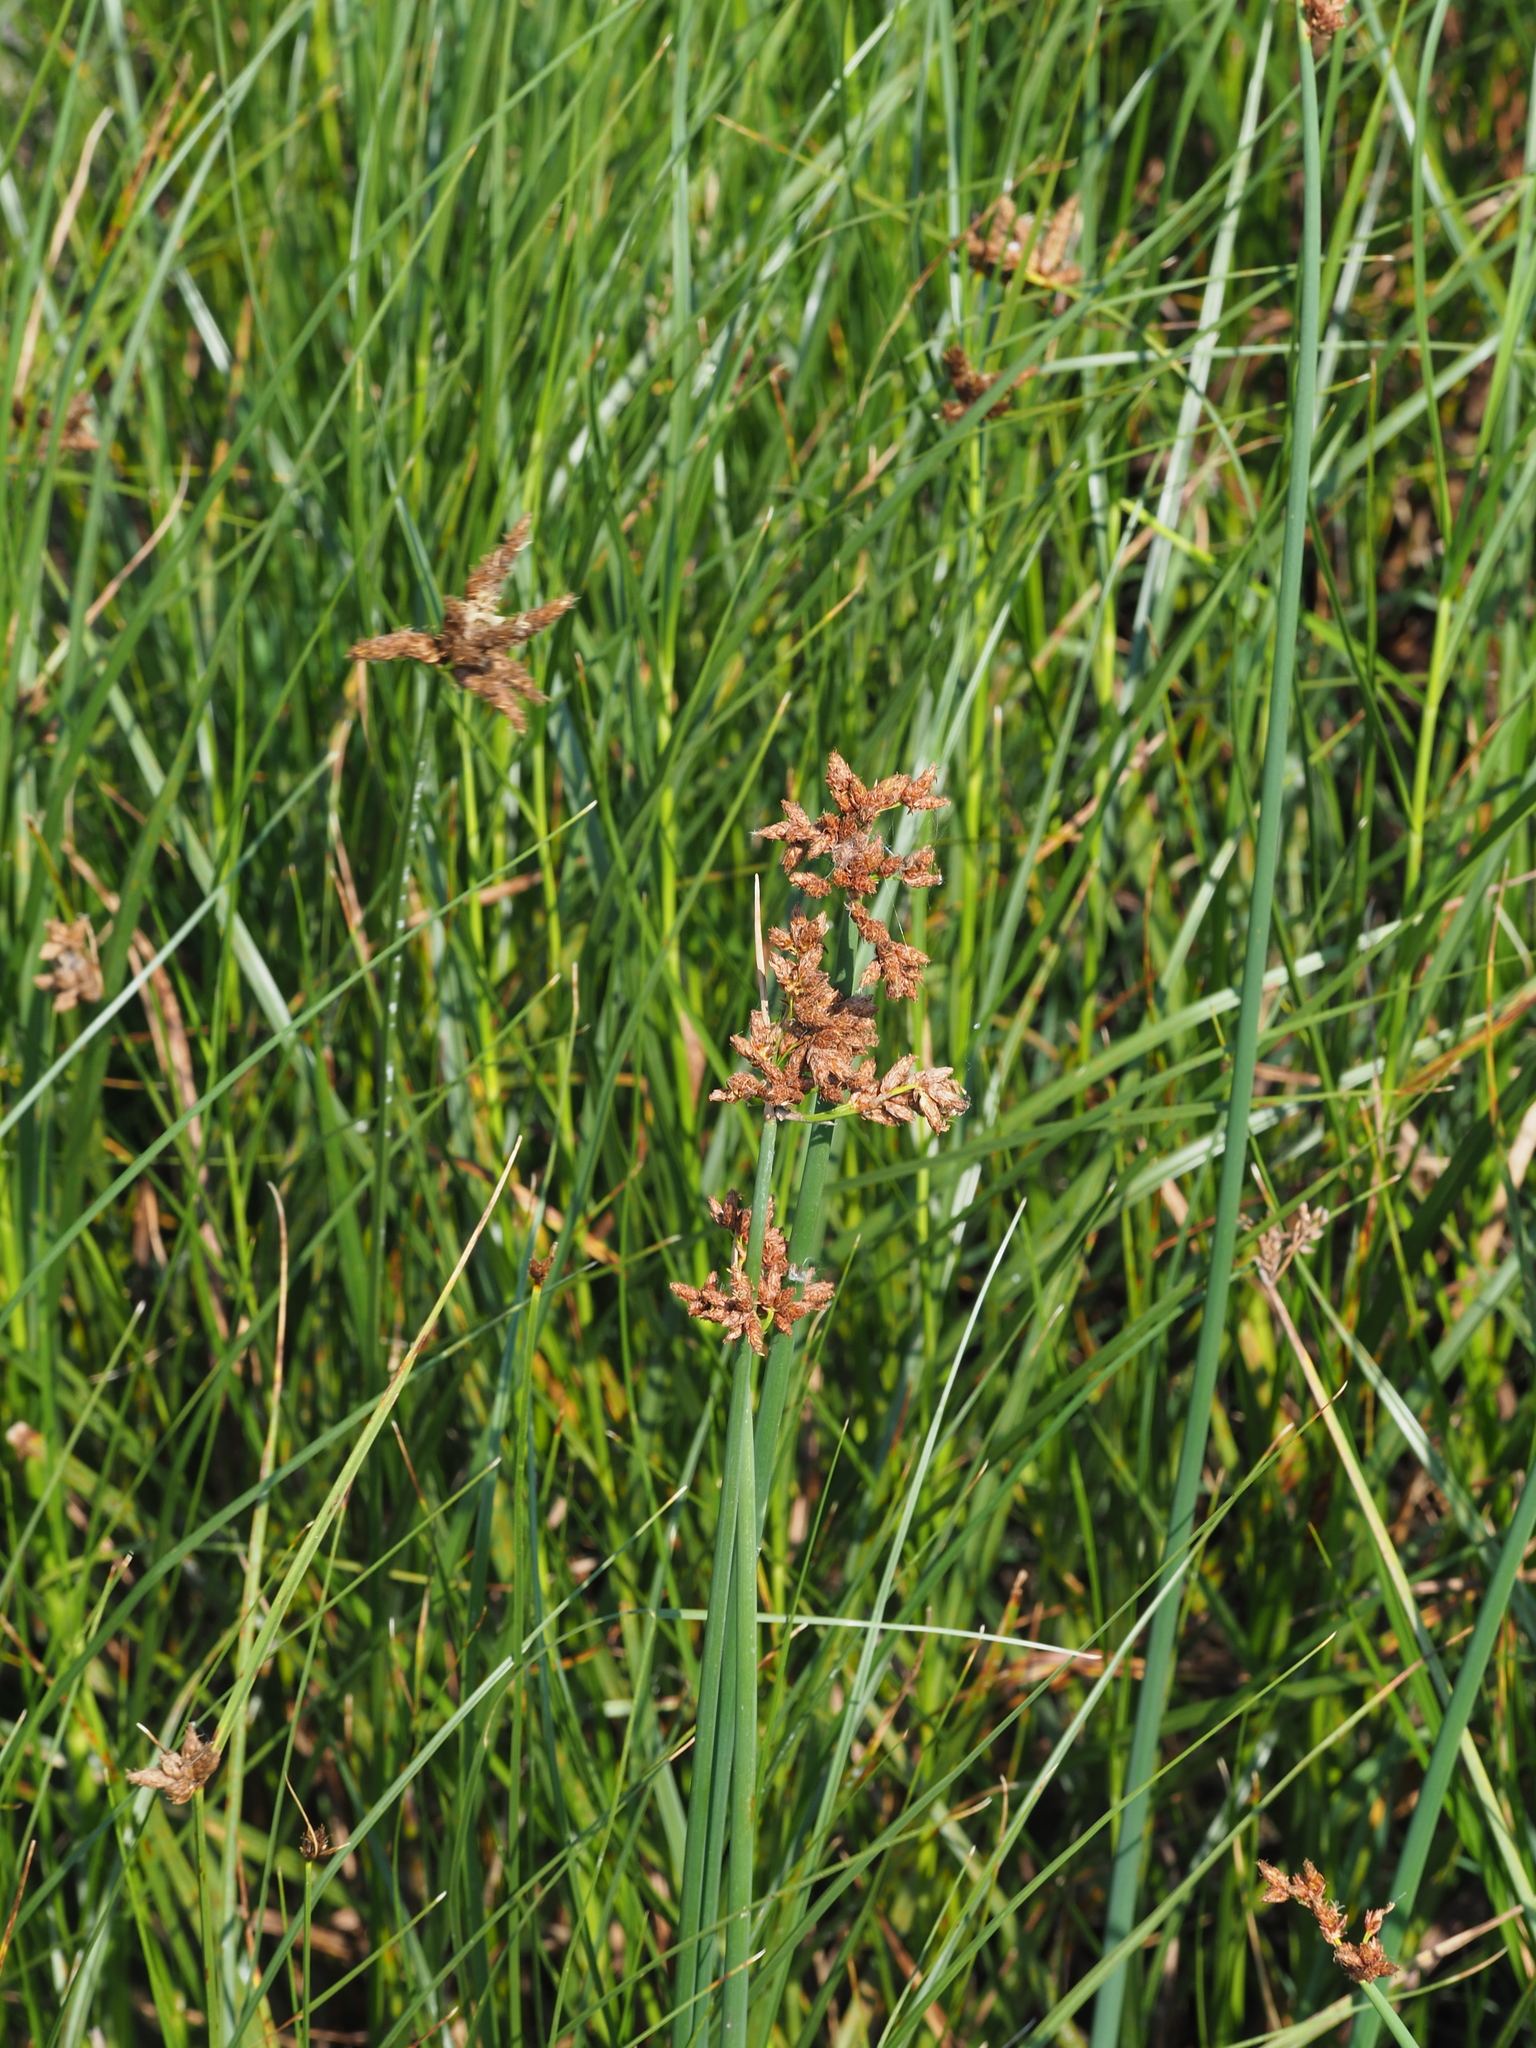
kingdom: Plantae
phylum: Tracheophyta
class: Liliopsida
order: Poales
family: Cyperaceae
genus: Schoenoplectus
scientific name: Schoenoplectus tabernaemontani
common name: Grey club-rush
